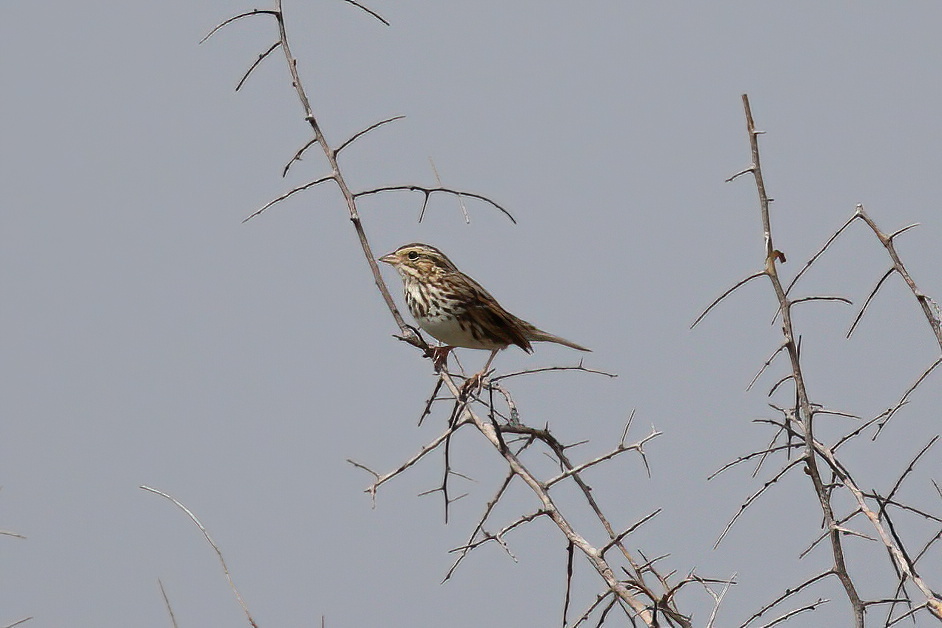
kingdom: Animalia
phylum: Chordata
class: Aves
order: Passeriformes
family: Passerellidae
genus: Passerculus
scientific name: Passerculus sandwichensis
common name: Savannah sparrow
